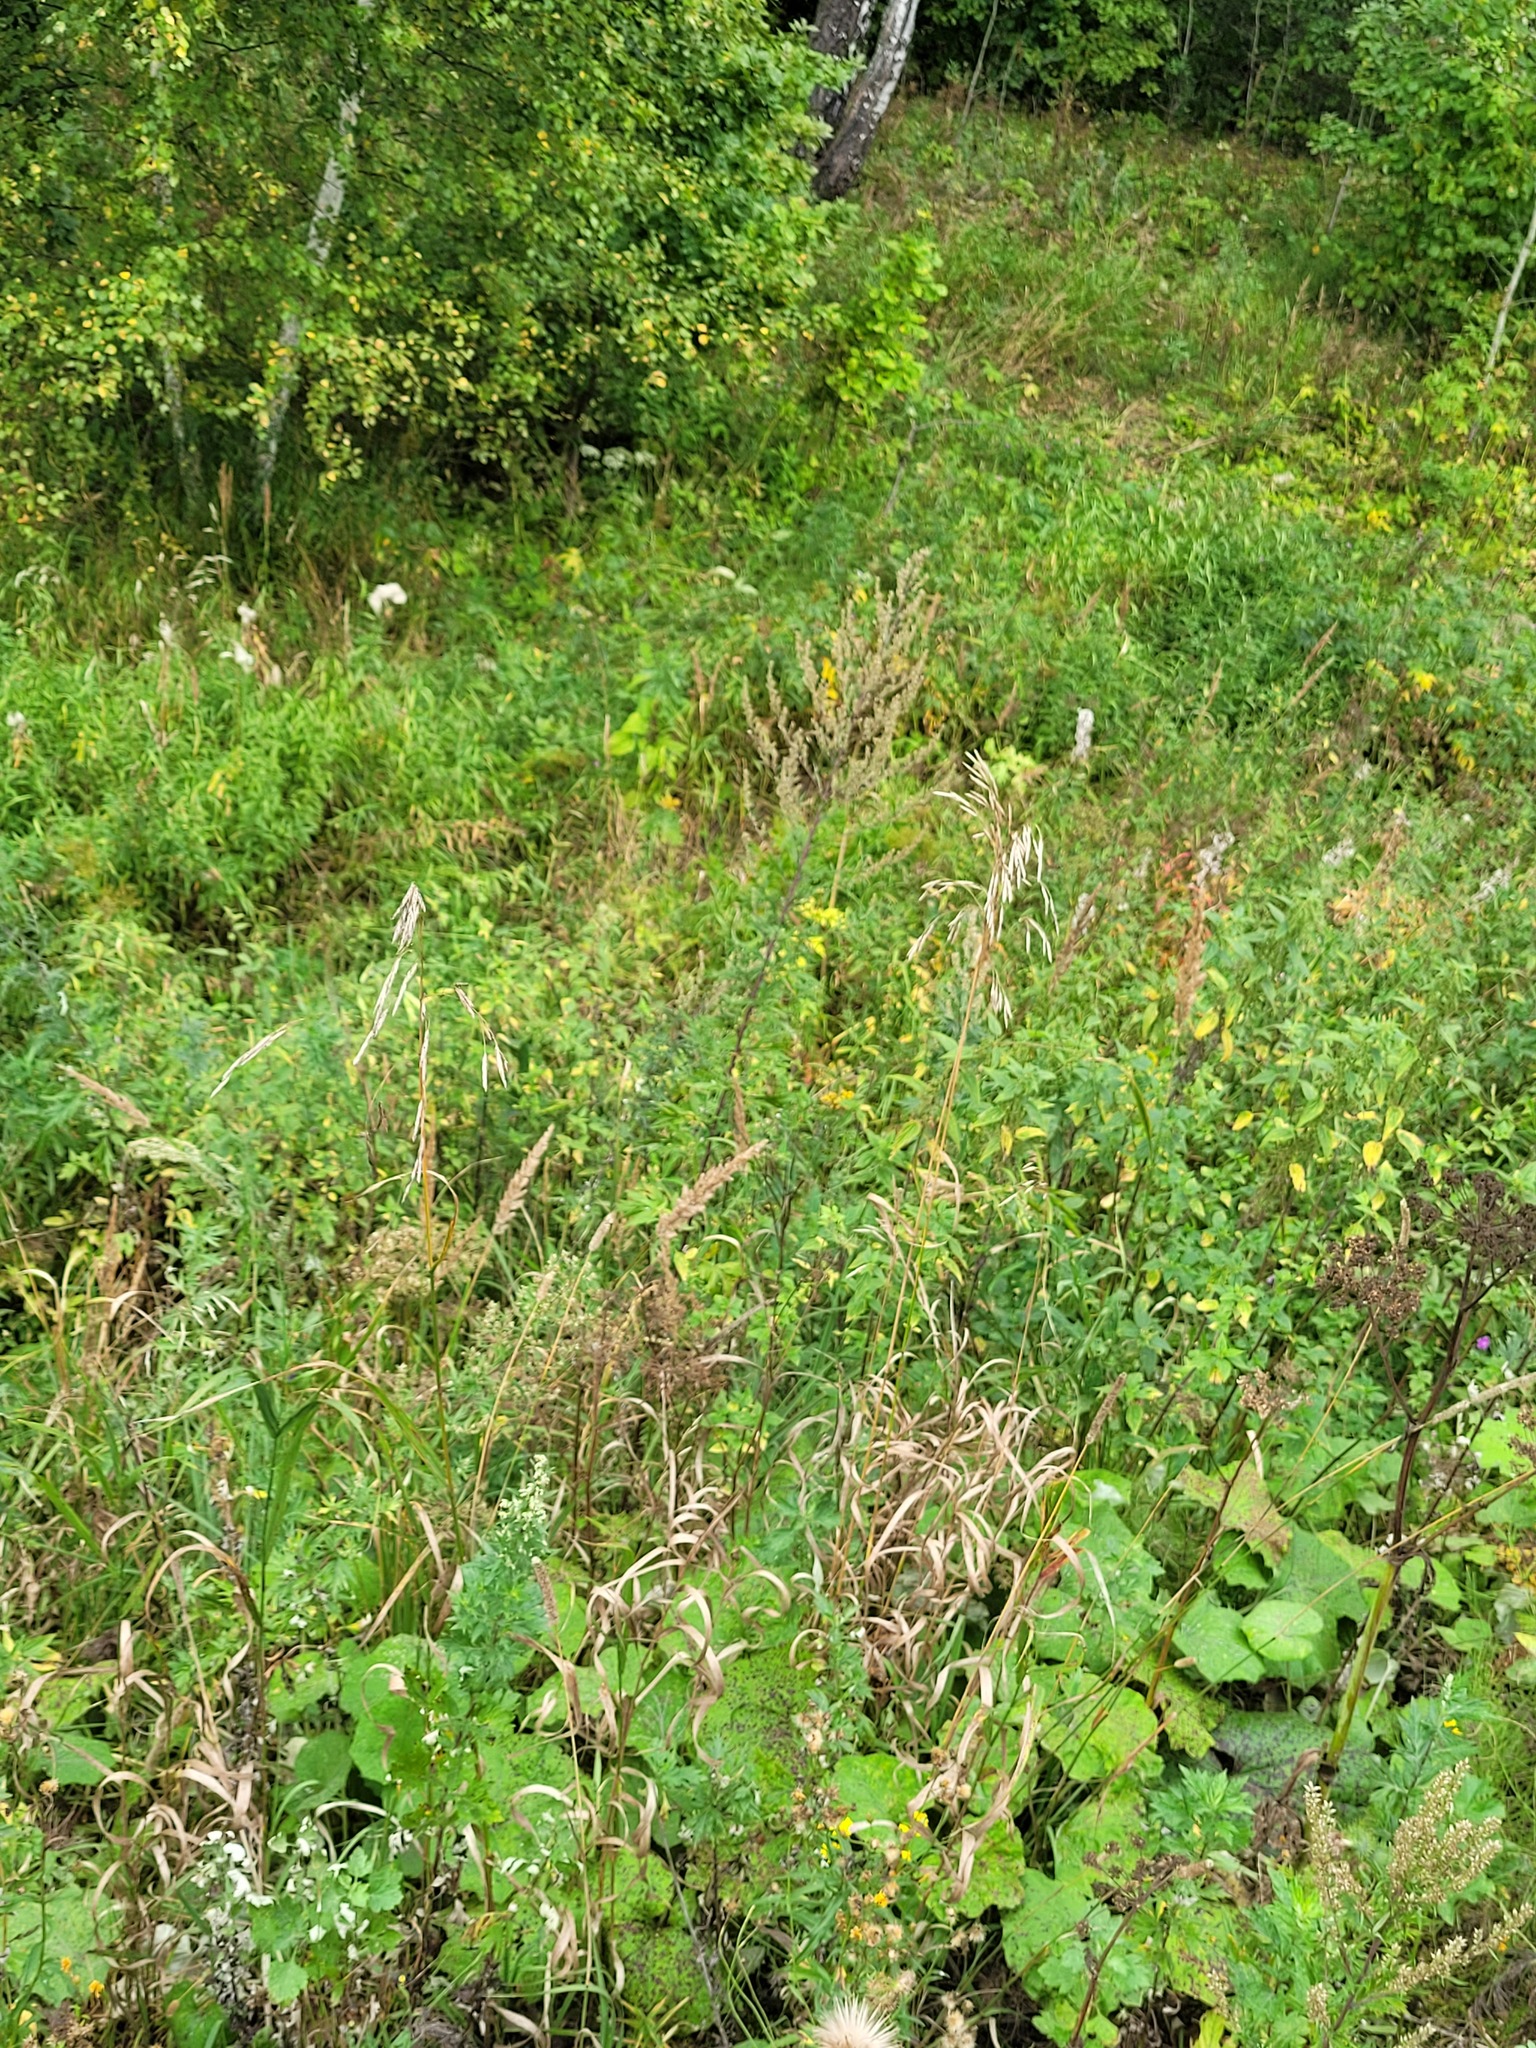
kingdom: Plantae
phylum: Tracheophyta
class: Liliopsida
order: Poales
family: Poaceae
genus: Bromus
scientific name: Bromus inermis
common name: Smooth brome
